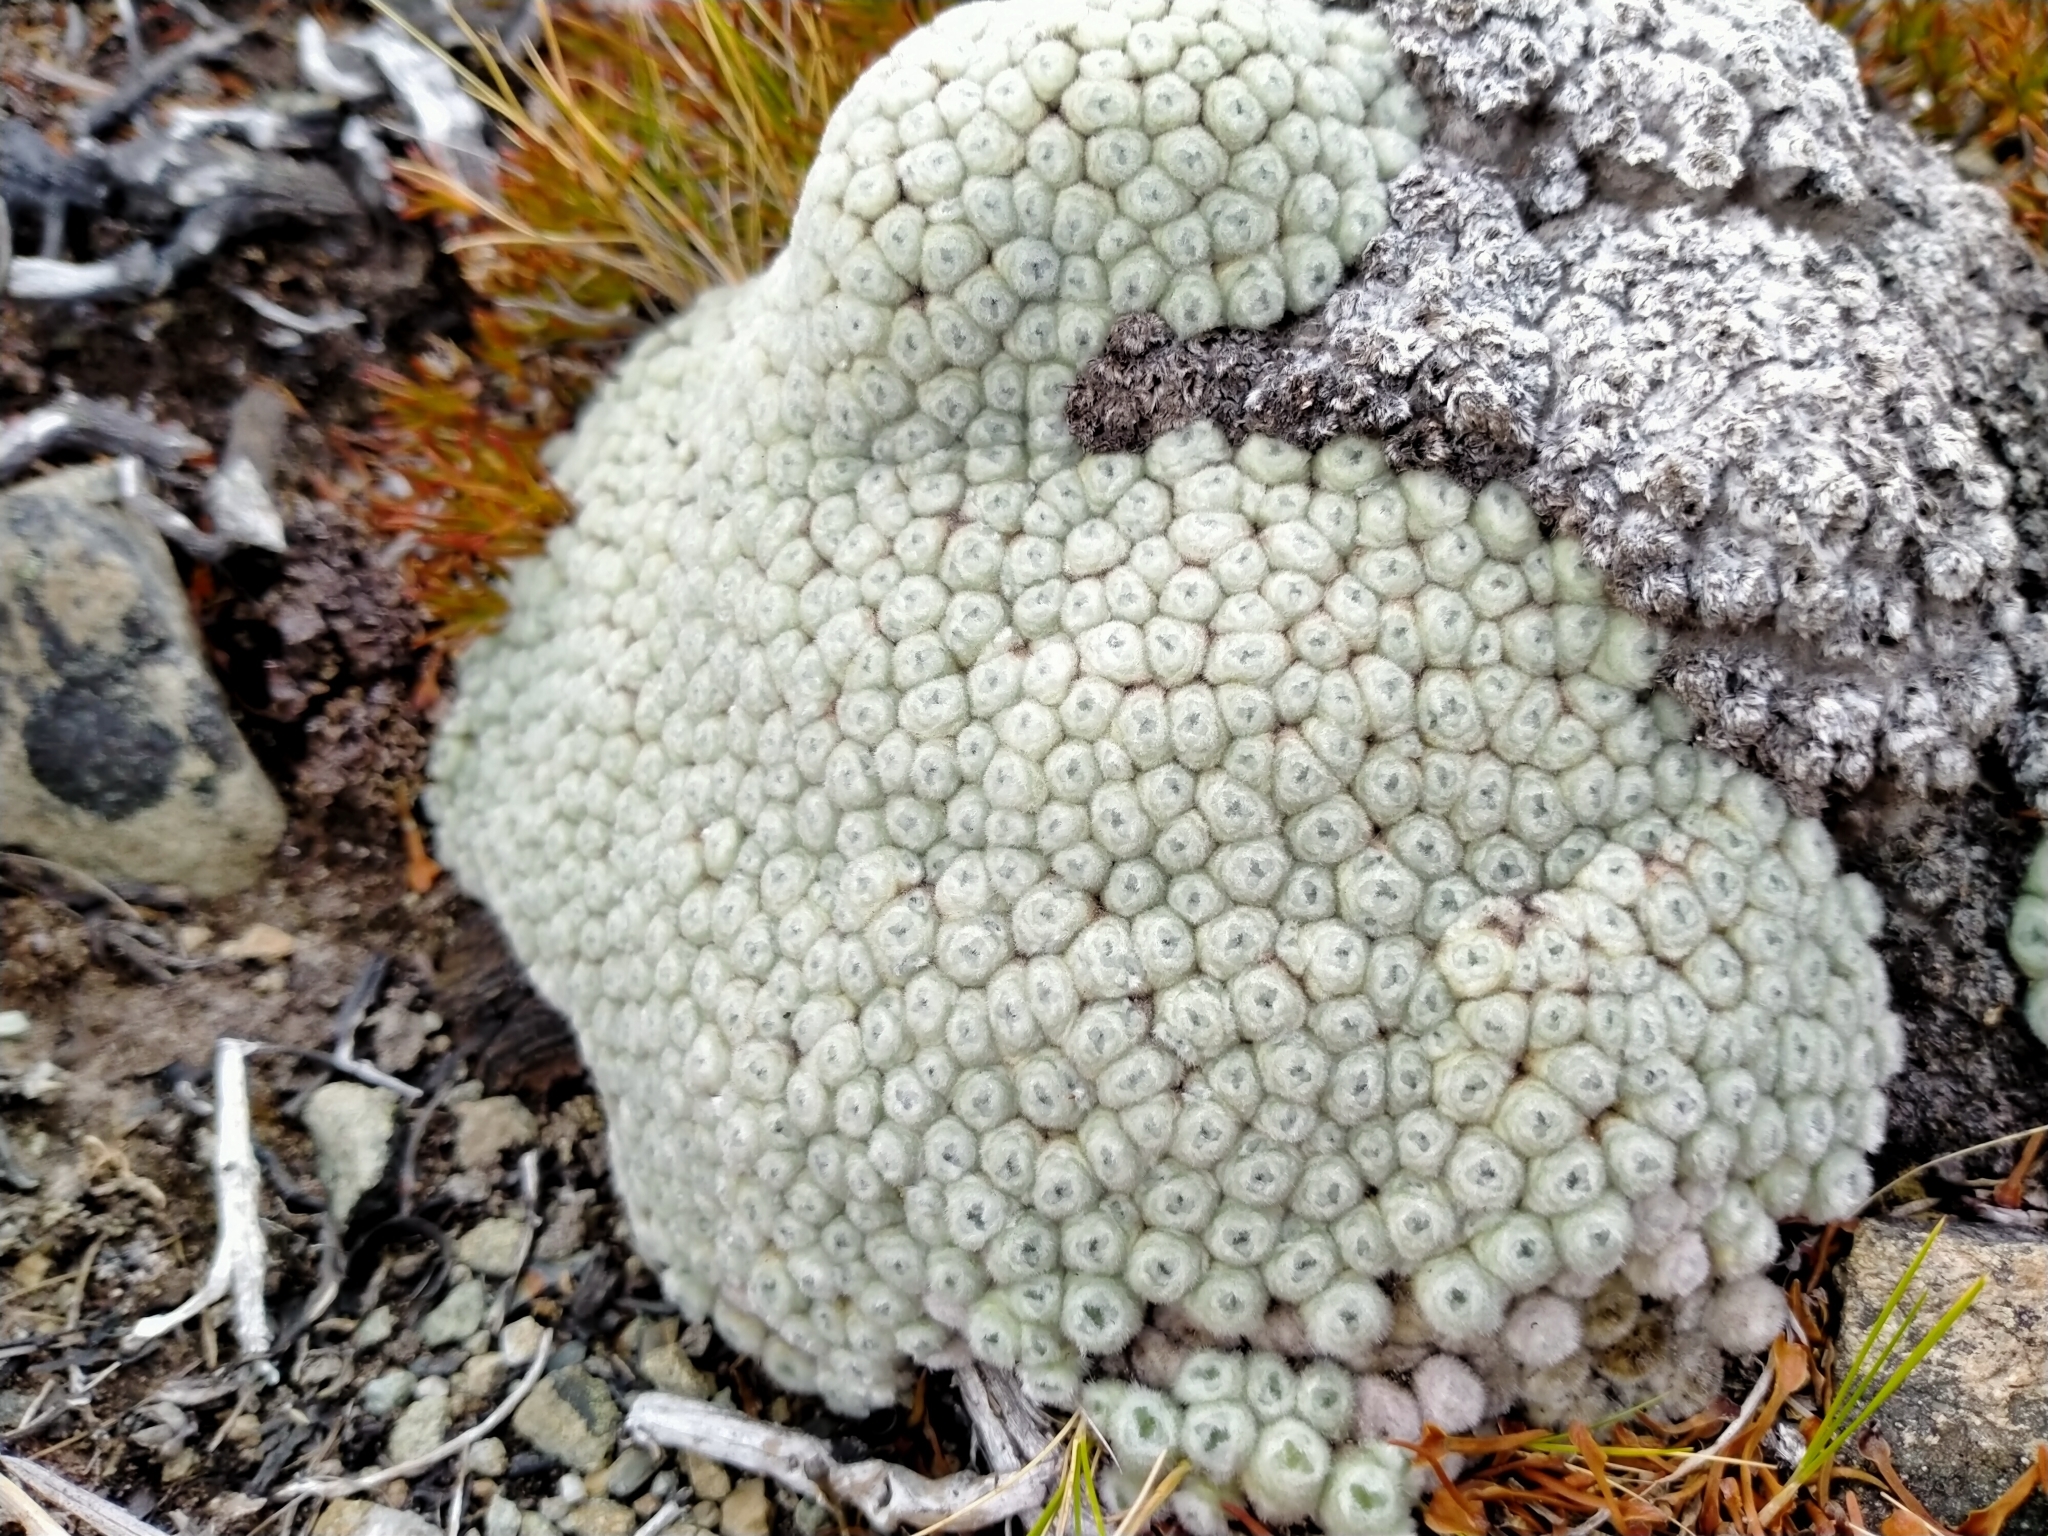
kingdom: Plantae
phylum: Tracheophyta
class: Magnoliopsida
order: Asterales
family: Asteraceae
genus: Raoulia
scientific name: Raoulia eximia
